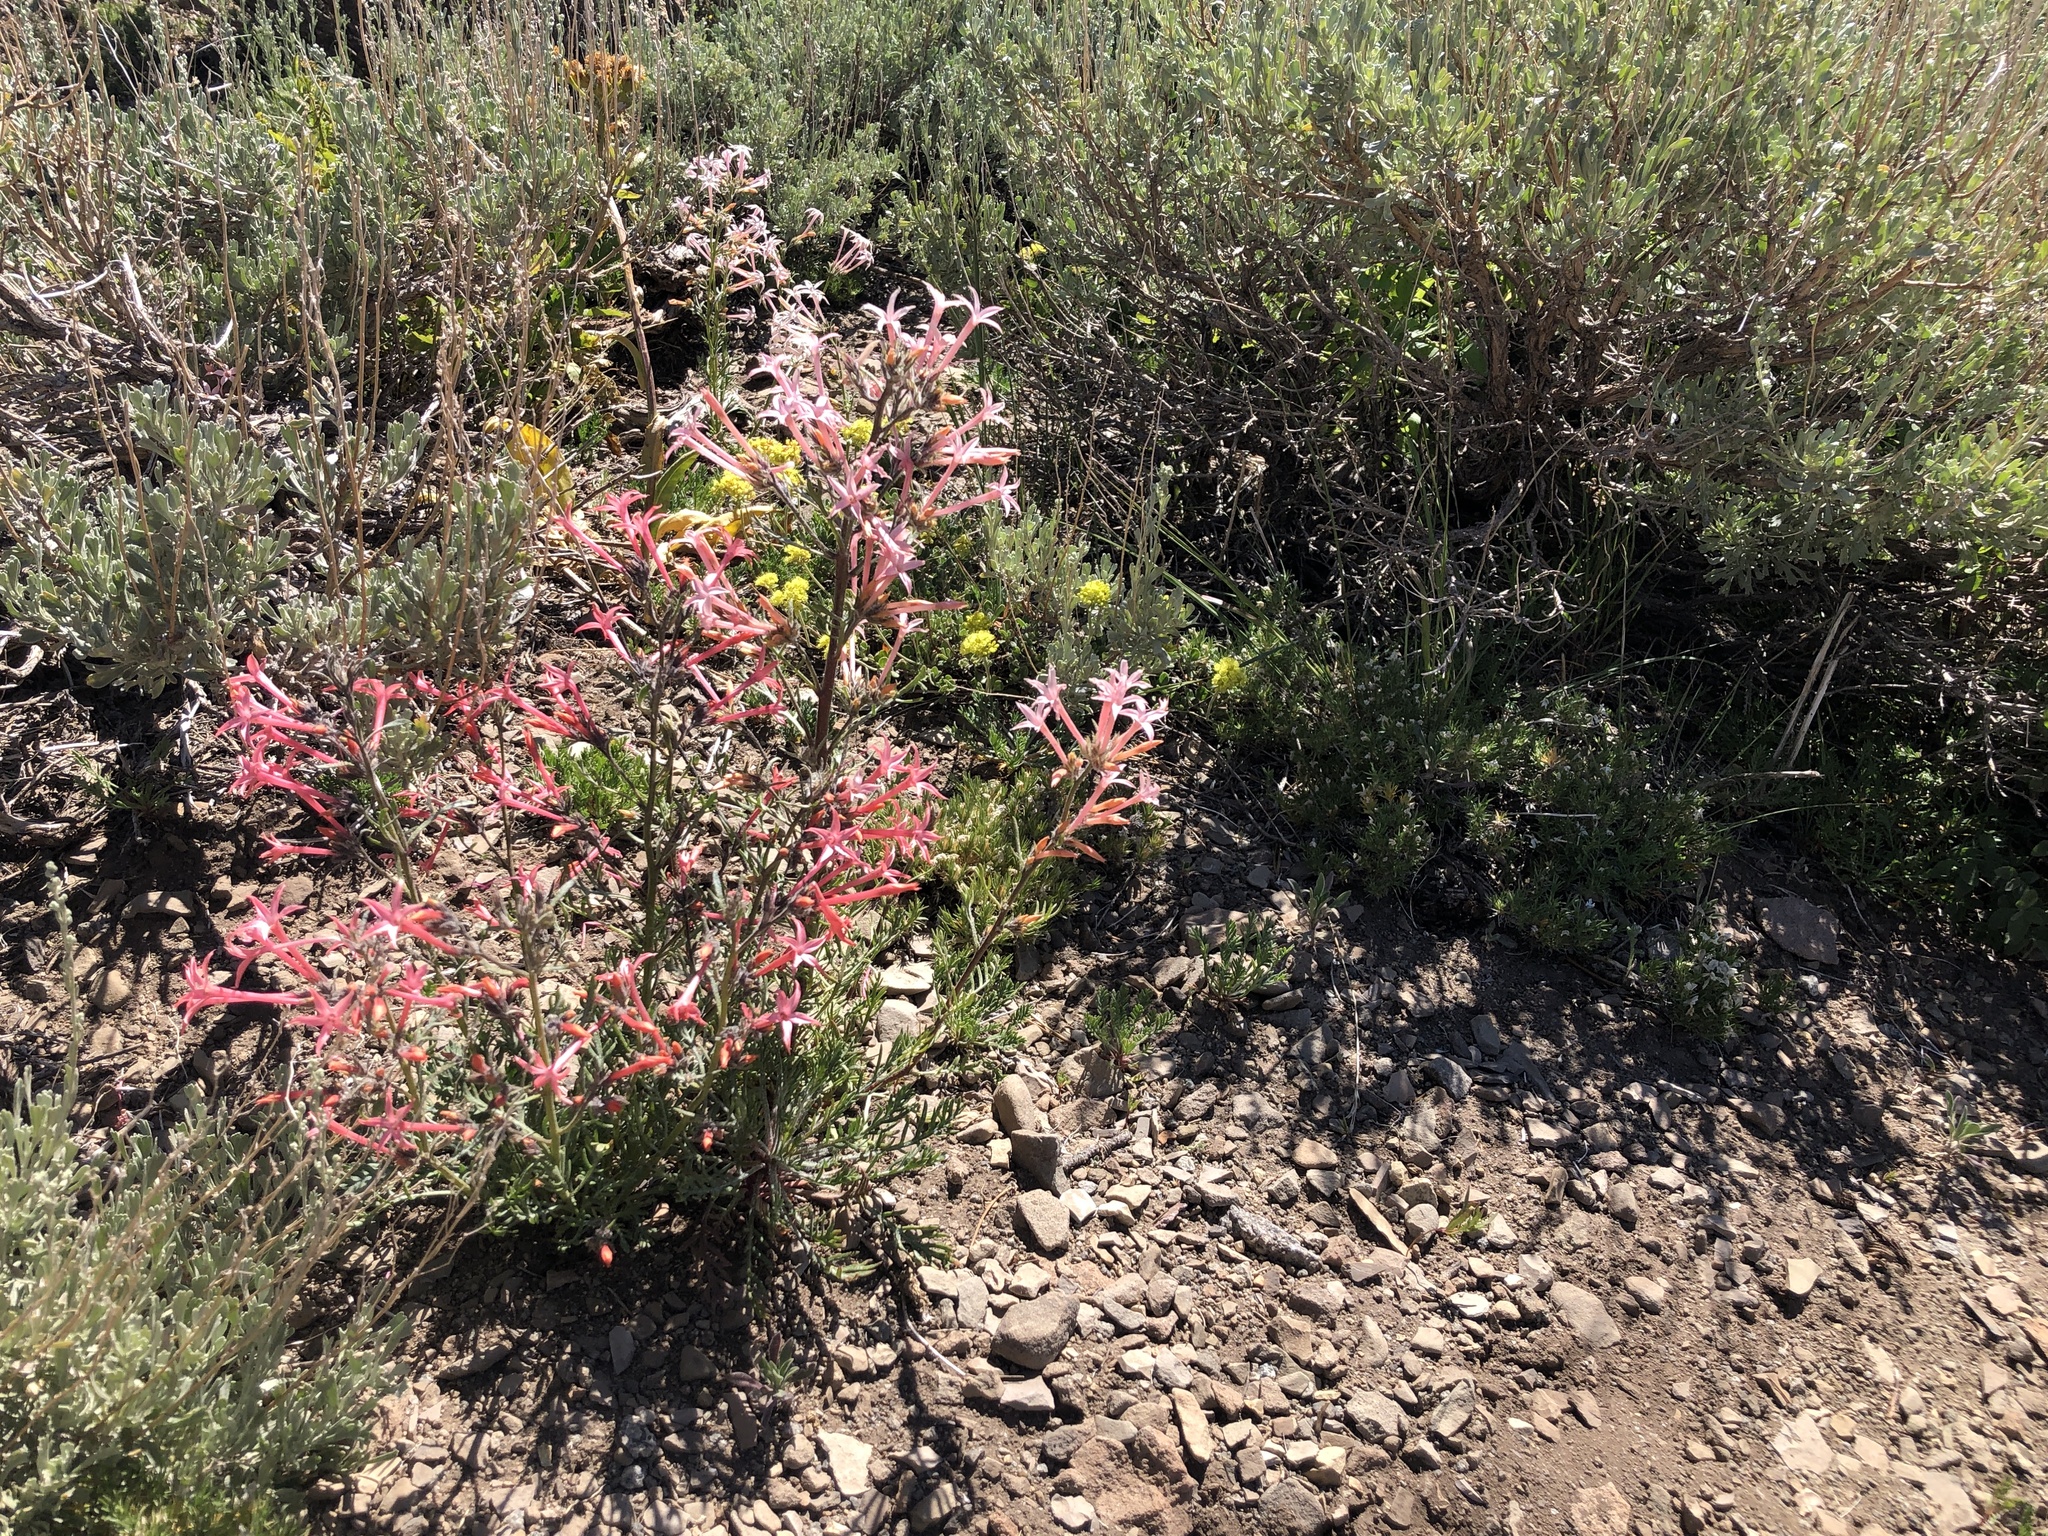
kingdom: Plantae
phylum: Tracheophyta
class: Magnoliopsida
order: Ericales
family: Polemoniaceae
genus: Ipomopsis
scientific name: Ipomopsis tenuituba
